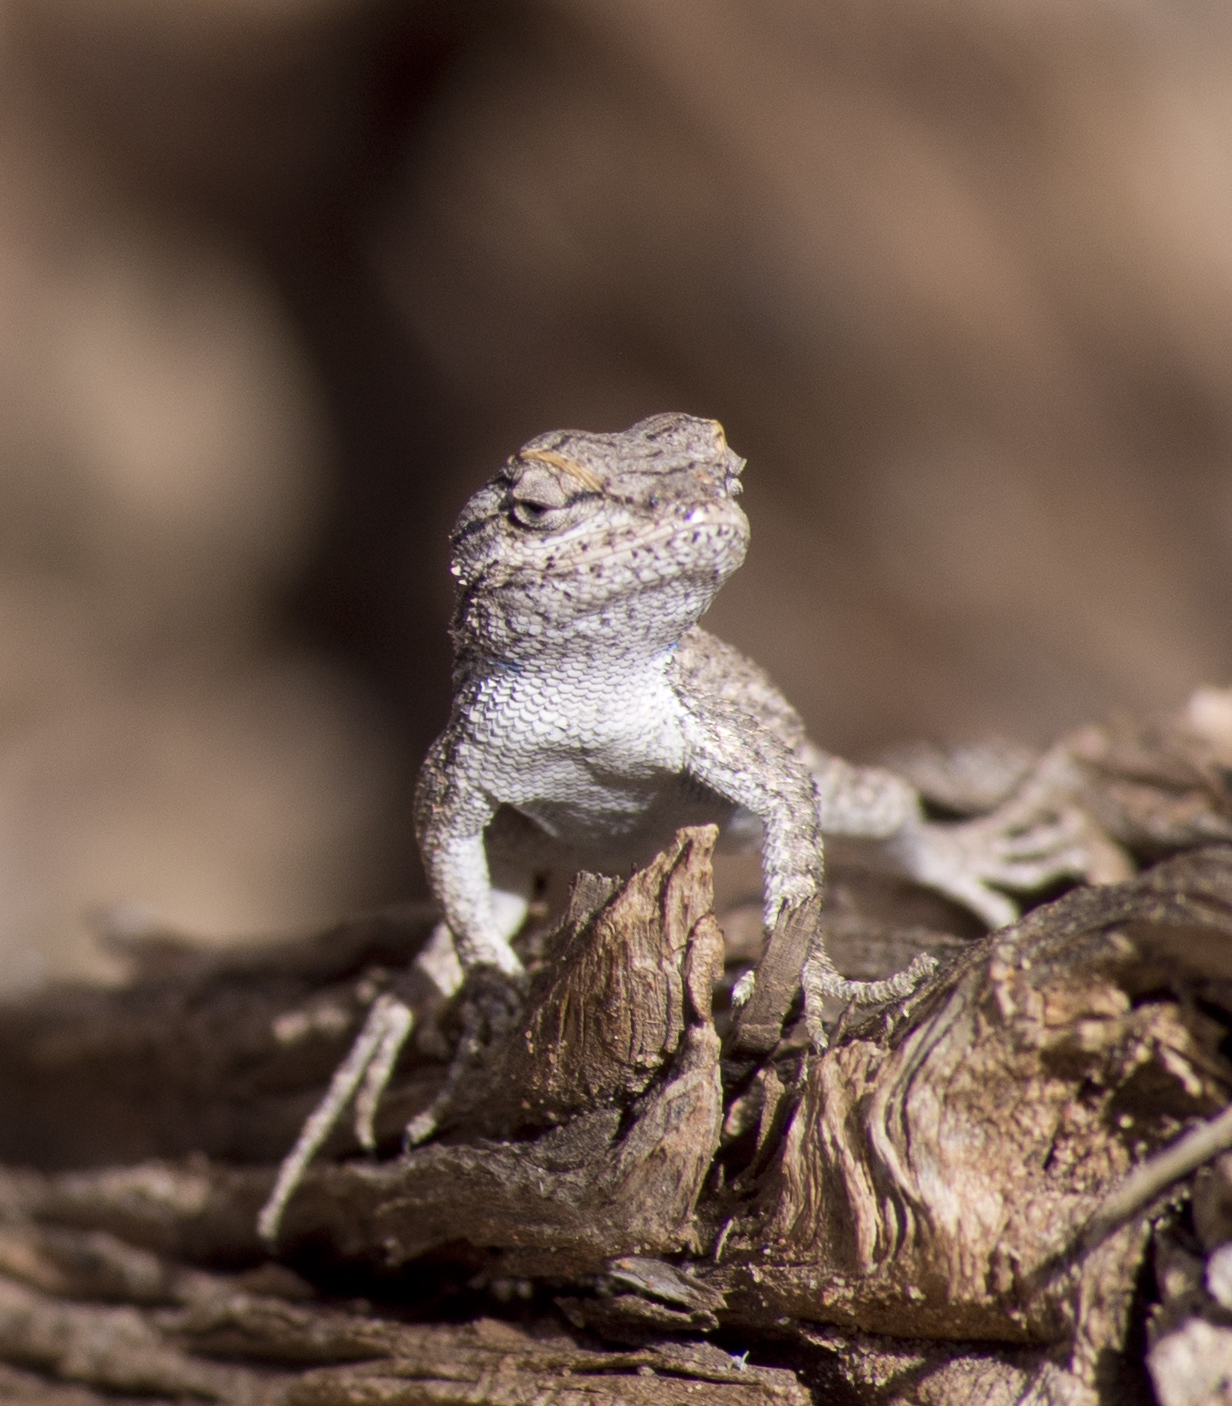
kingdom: Animalia
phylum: Chordata
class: Squamata
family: Phrynosomatidae
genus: Sceloporus
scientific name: Sceloporus tristichus
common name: Plateau fence lizard
